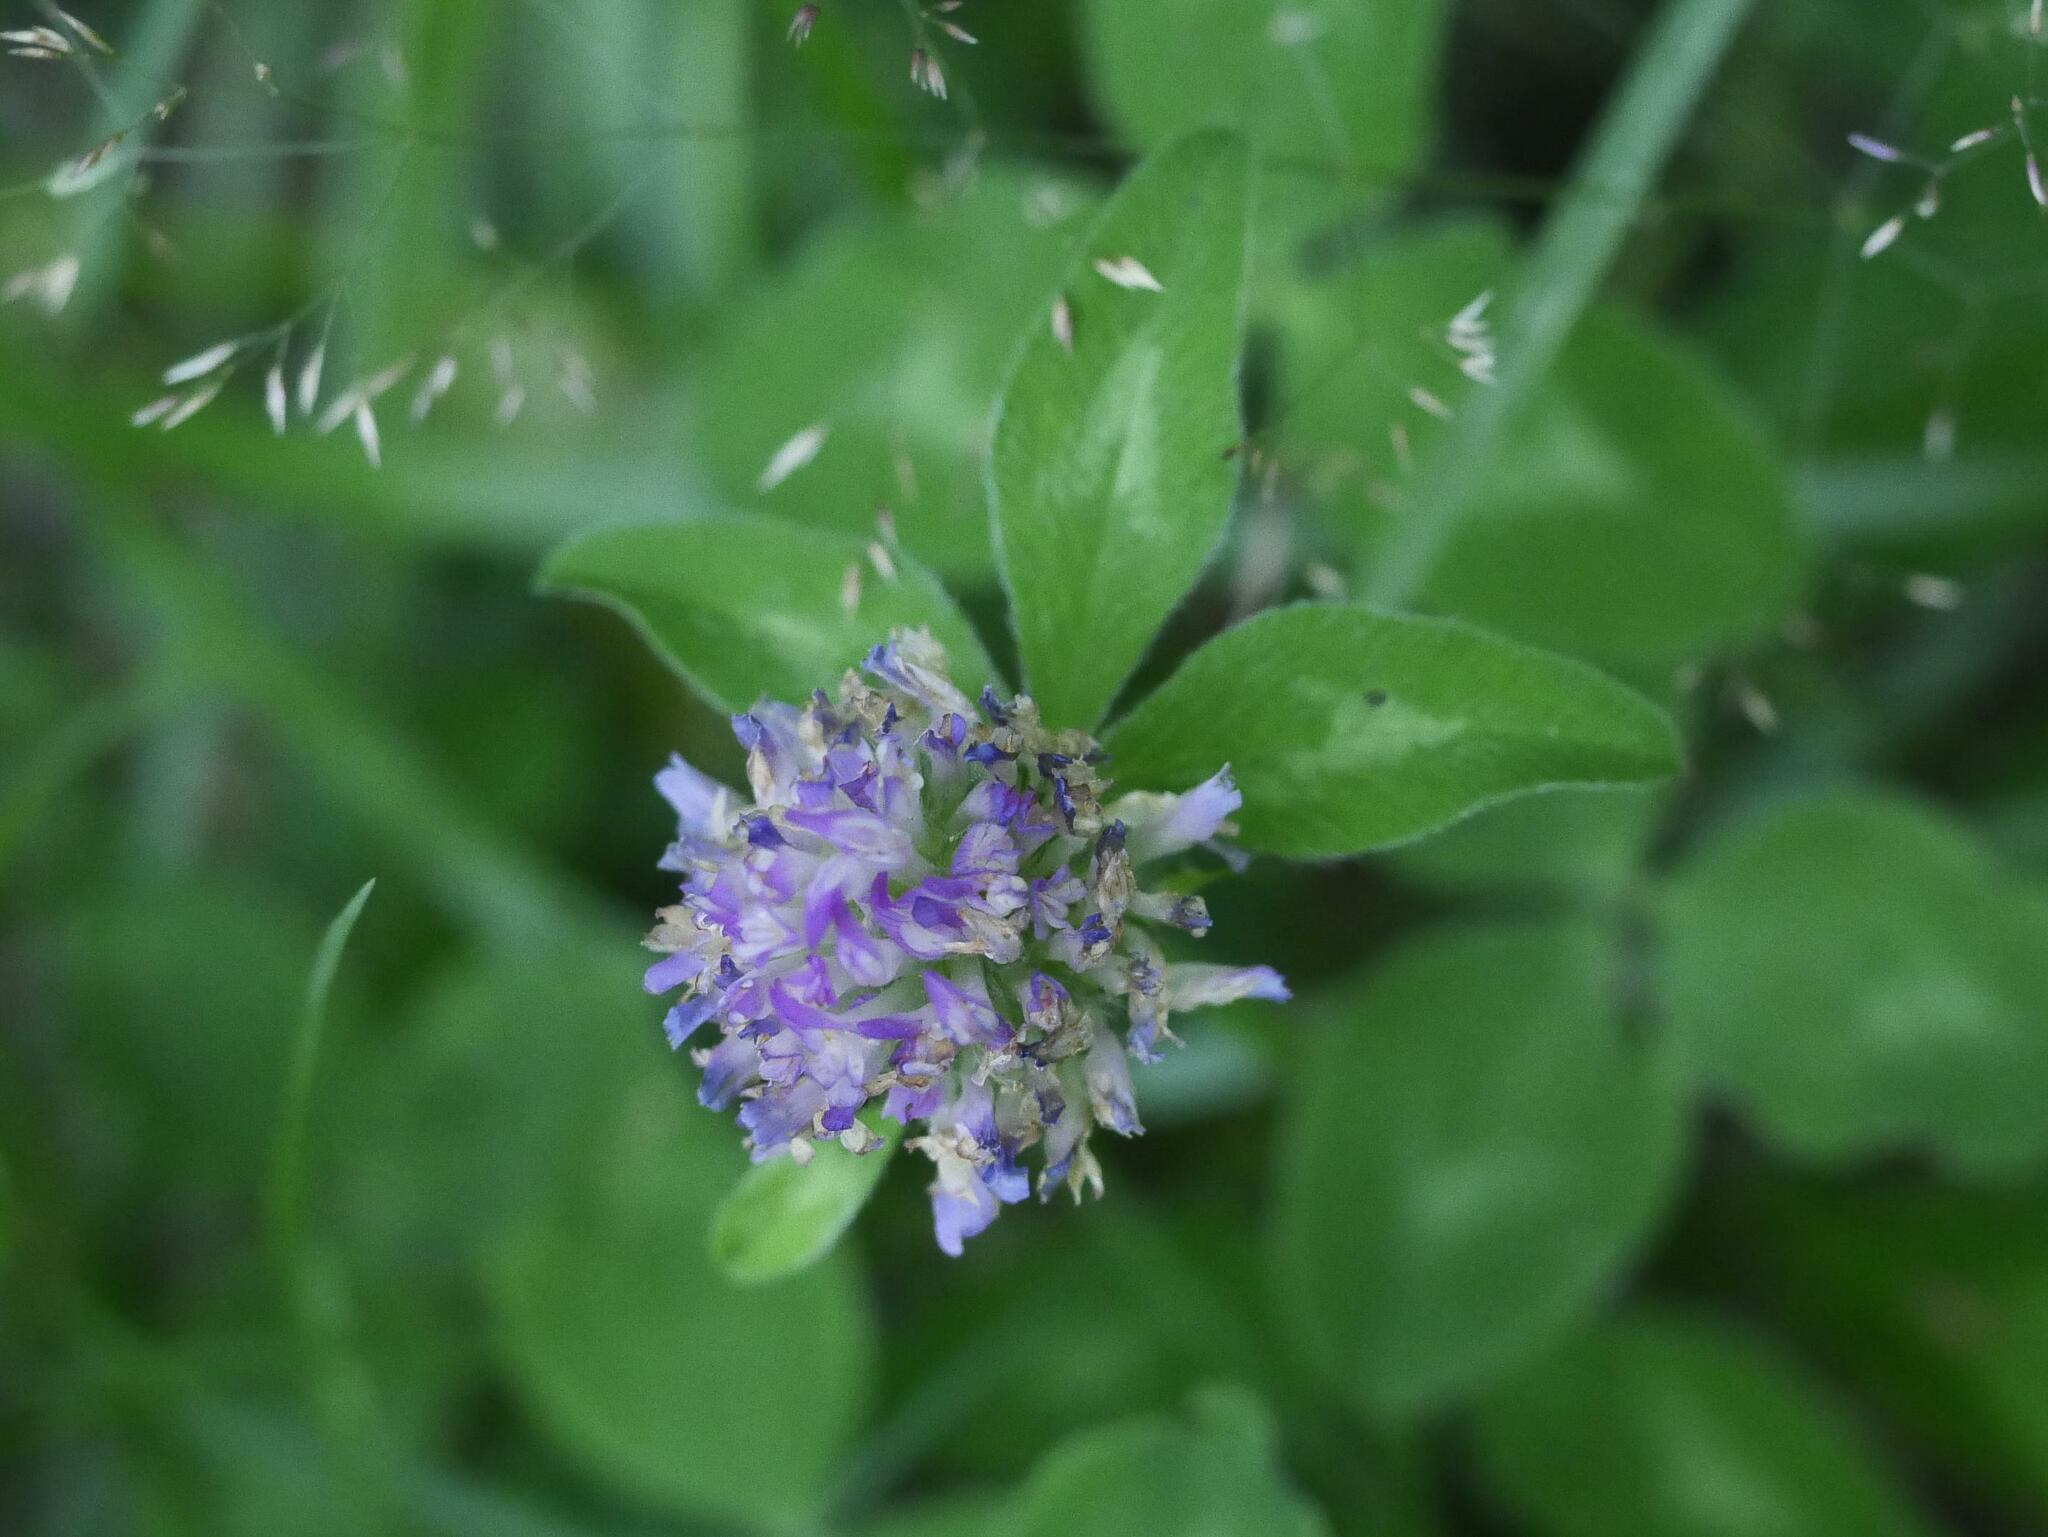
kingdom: Plantae
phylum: Tracheophyta
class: Magnoliopsida
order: Fabales
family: Fabaceae
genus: Trifolium
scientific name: Trifolium pratense
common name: Red clover
